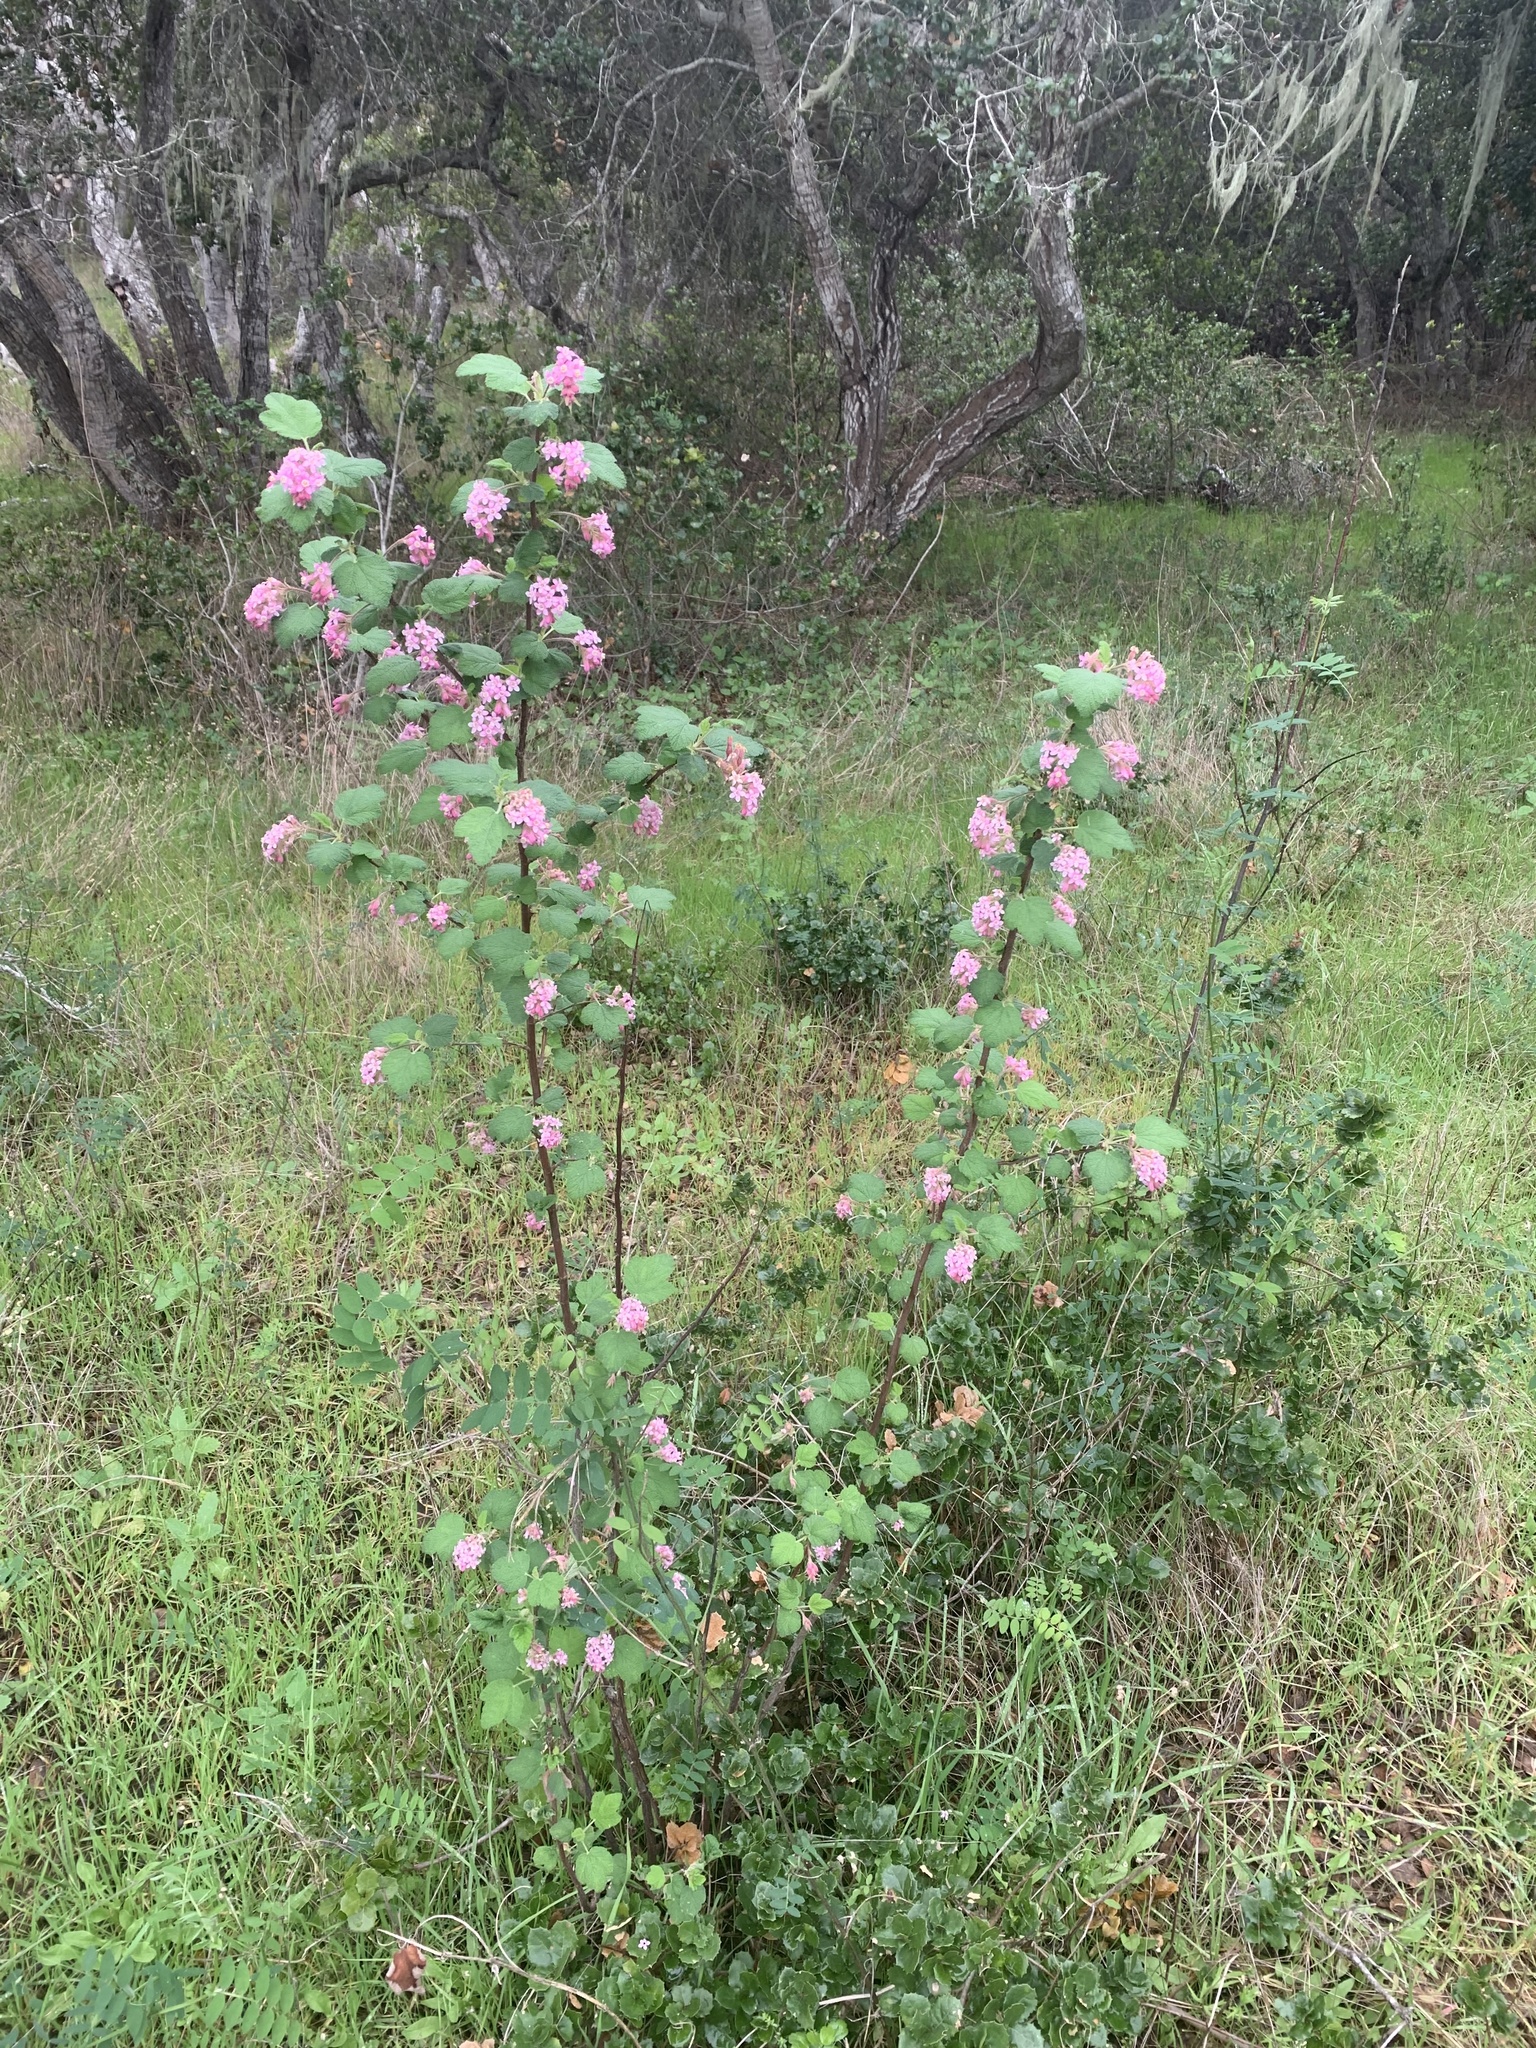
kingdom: Plantae
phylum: Tracheophyta
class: Magnoliopsida
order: Saxifragales
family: Grossulariaceae
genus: Ribes
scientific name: Ribes malvaceum
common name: Chaparral currant
